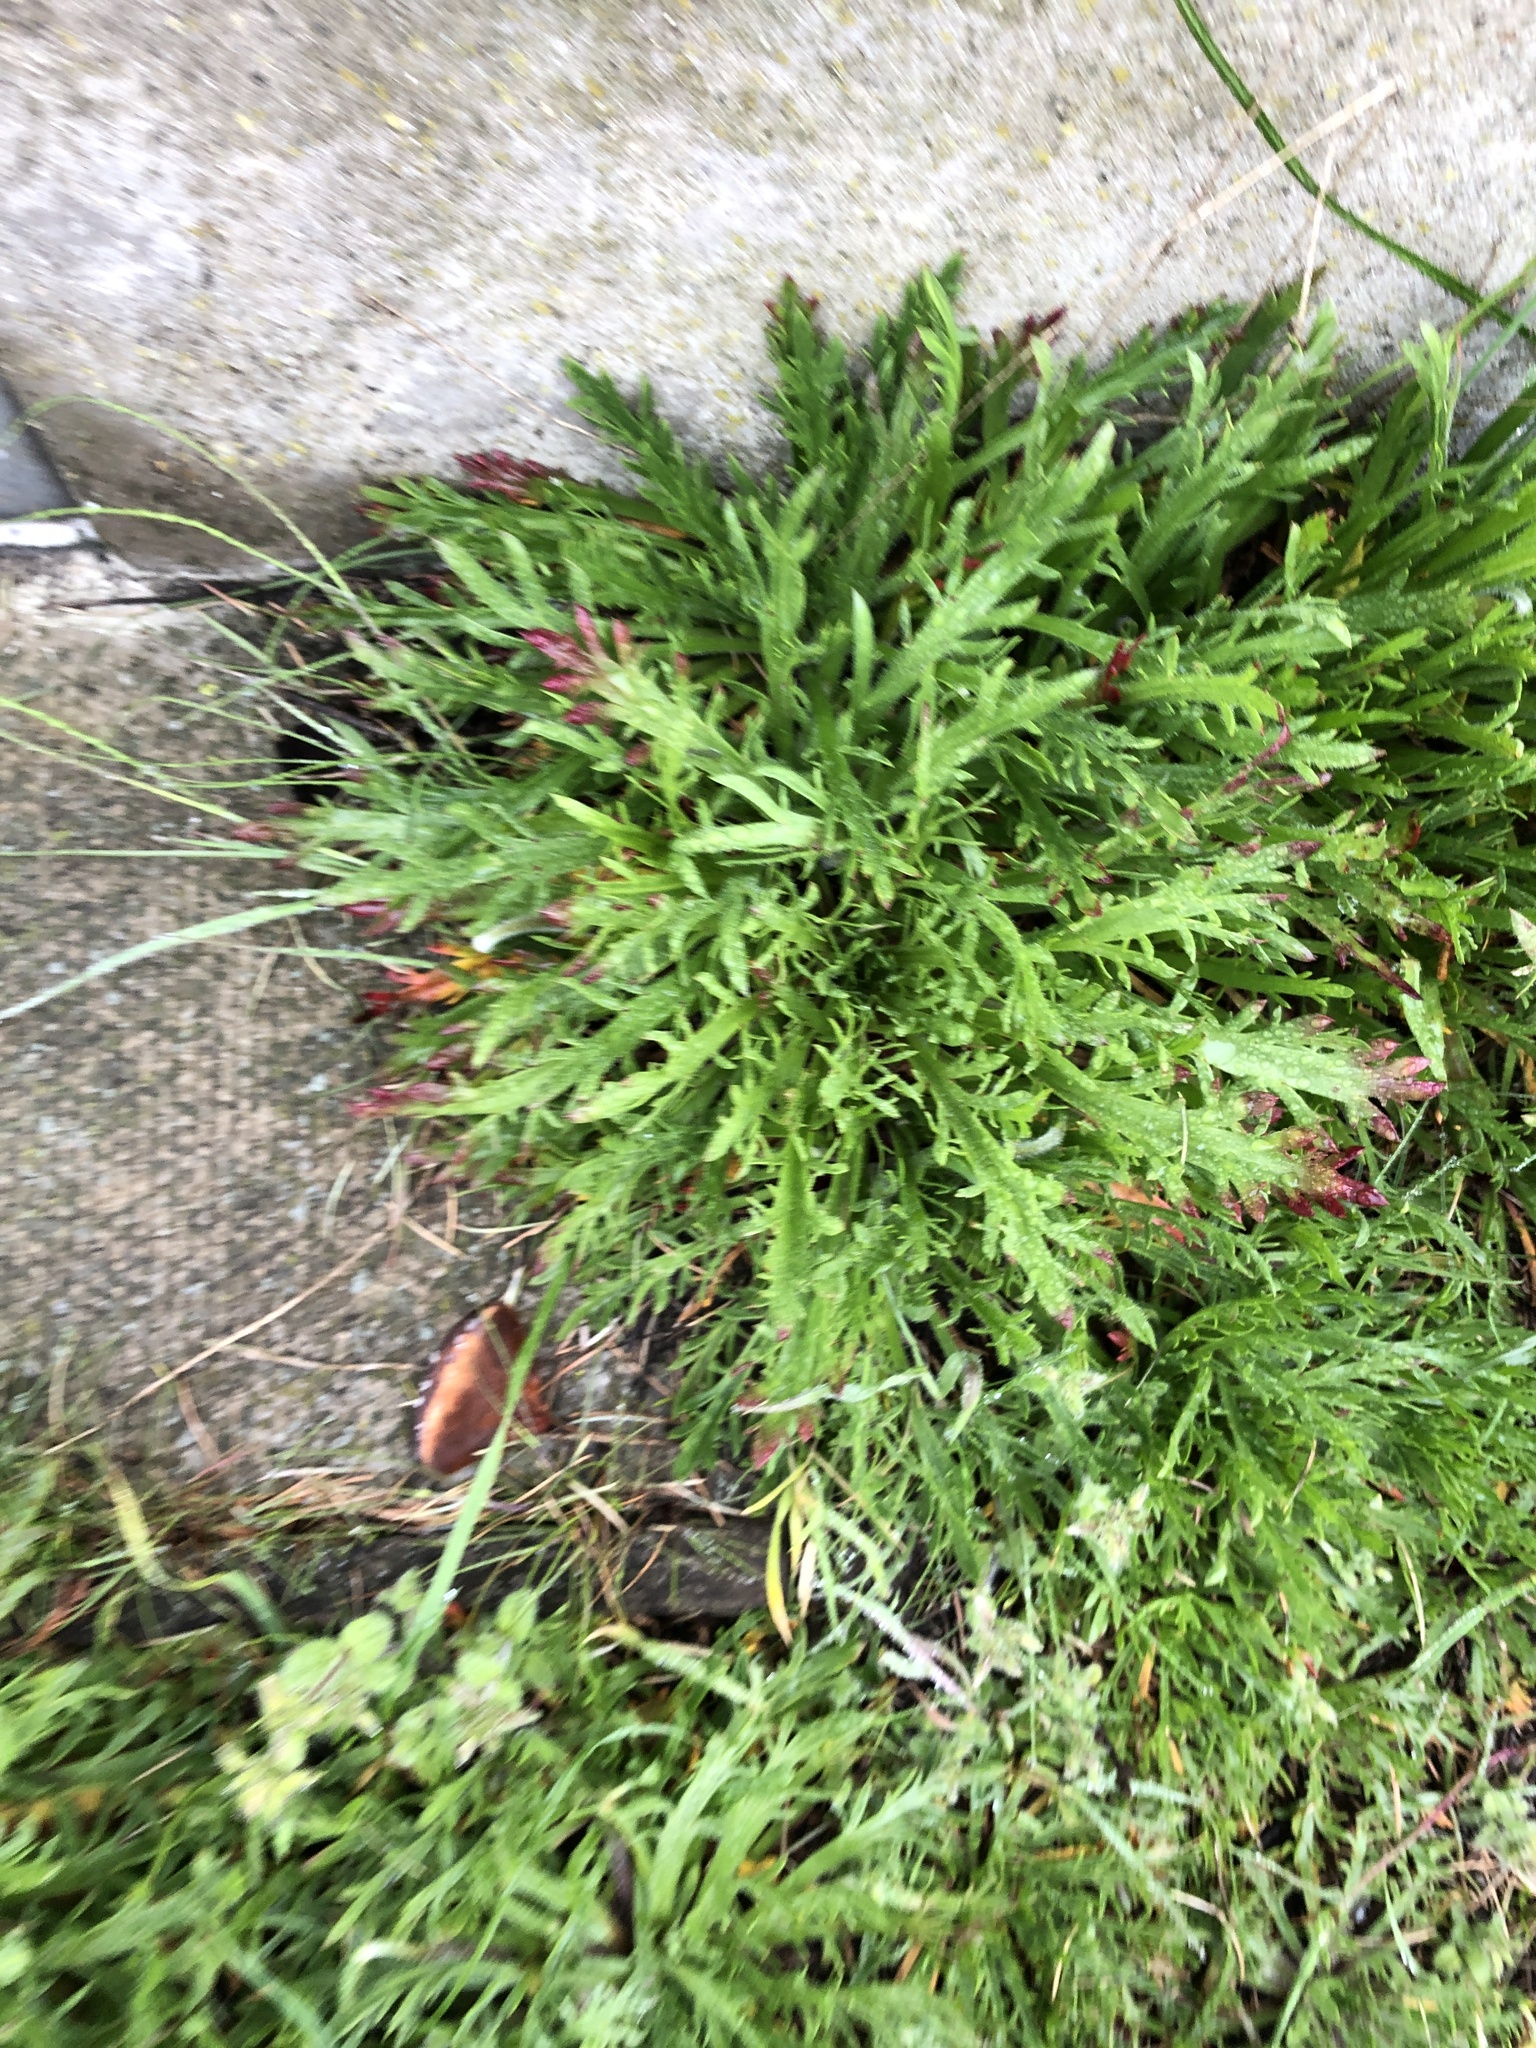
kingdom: Plantae
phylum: Tracheophyta
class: Magnoliopsida
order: Lamiales
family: Plantaginaceae
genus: Plantago
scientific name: Plantago coronopus
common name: Buck's-horn plantain
